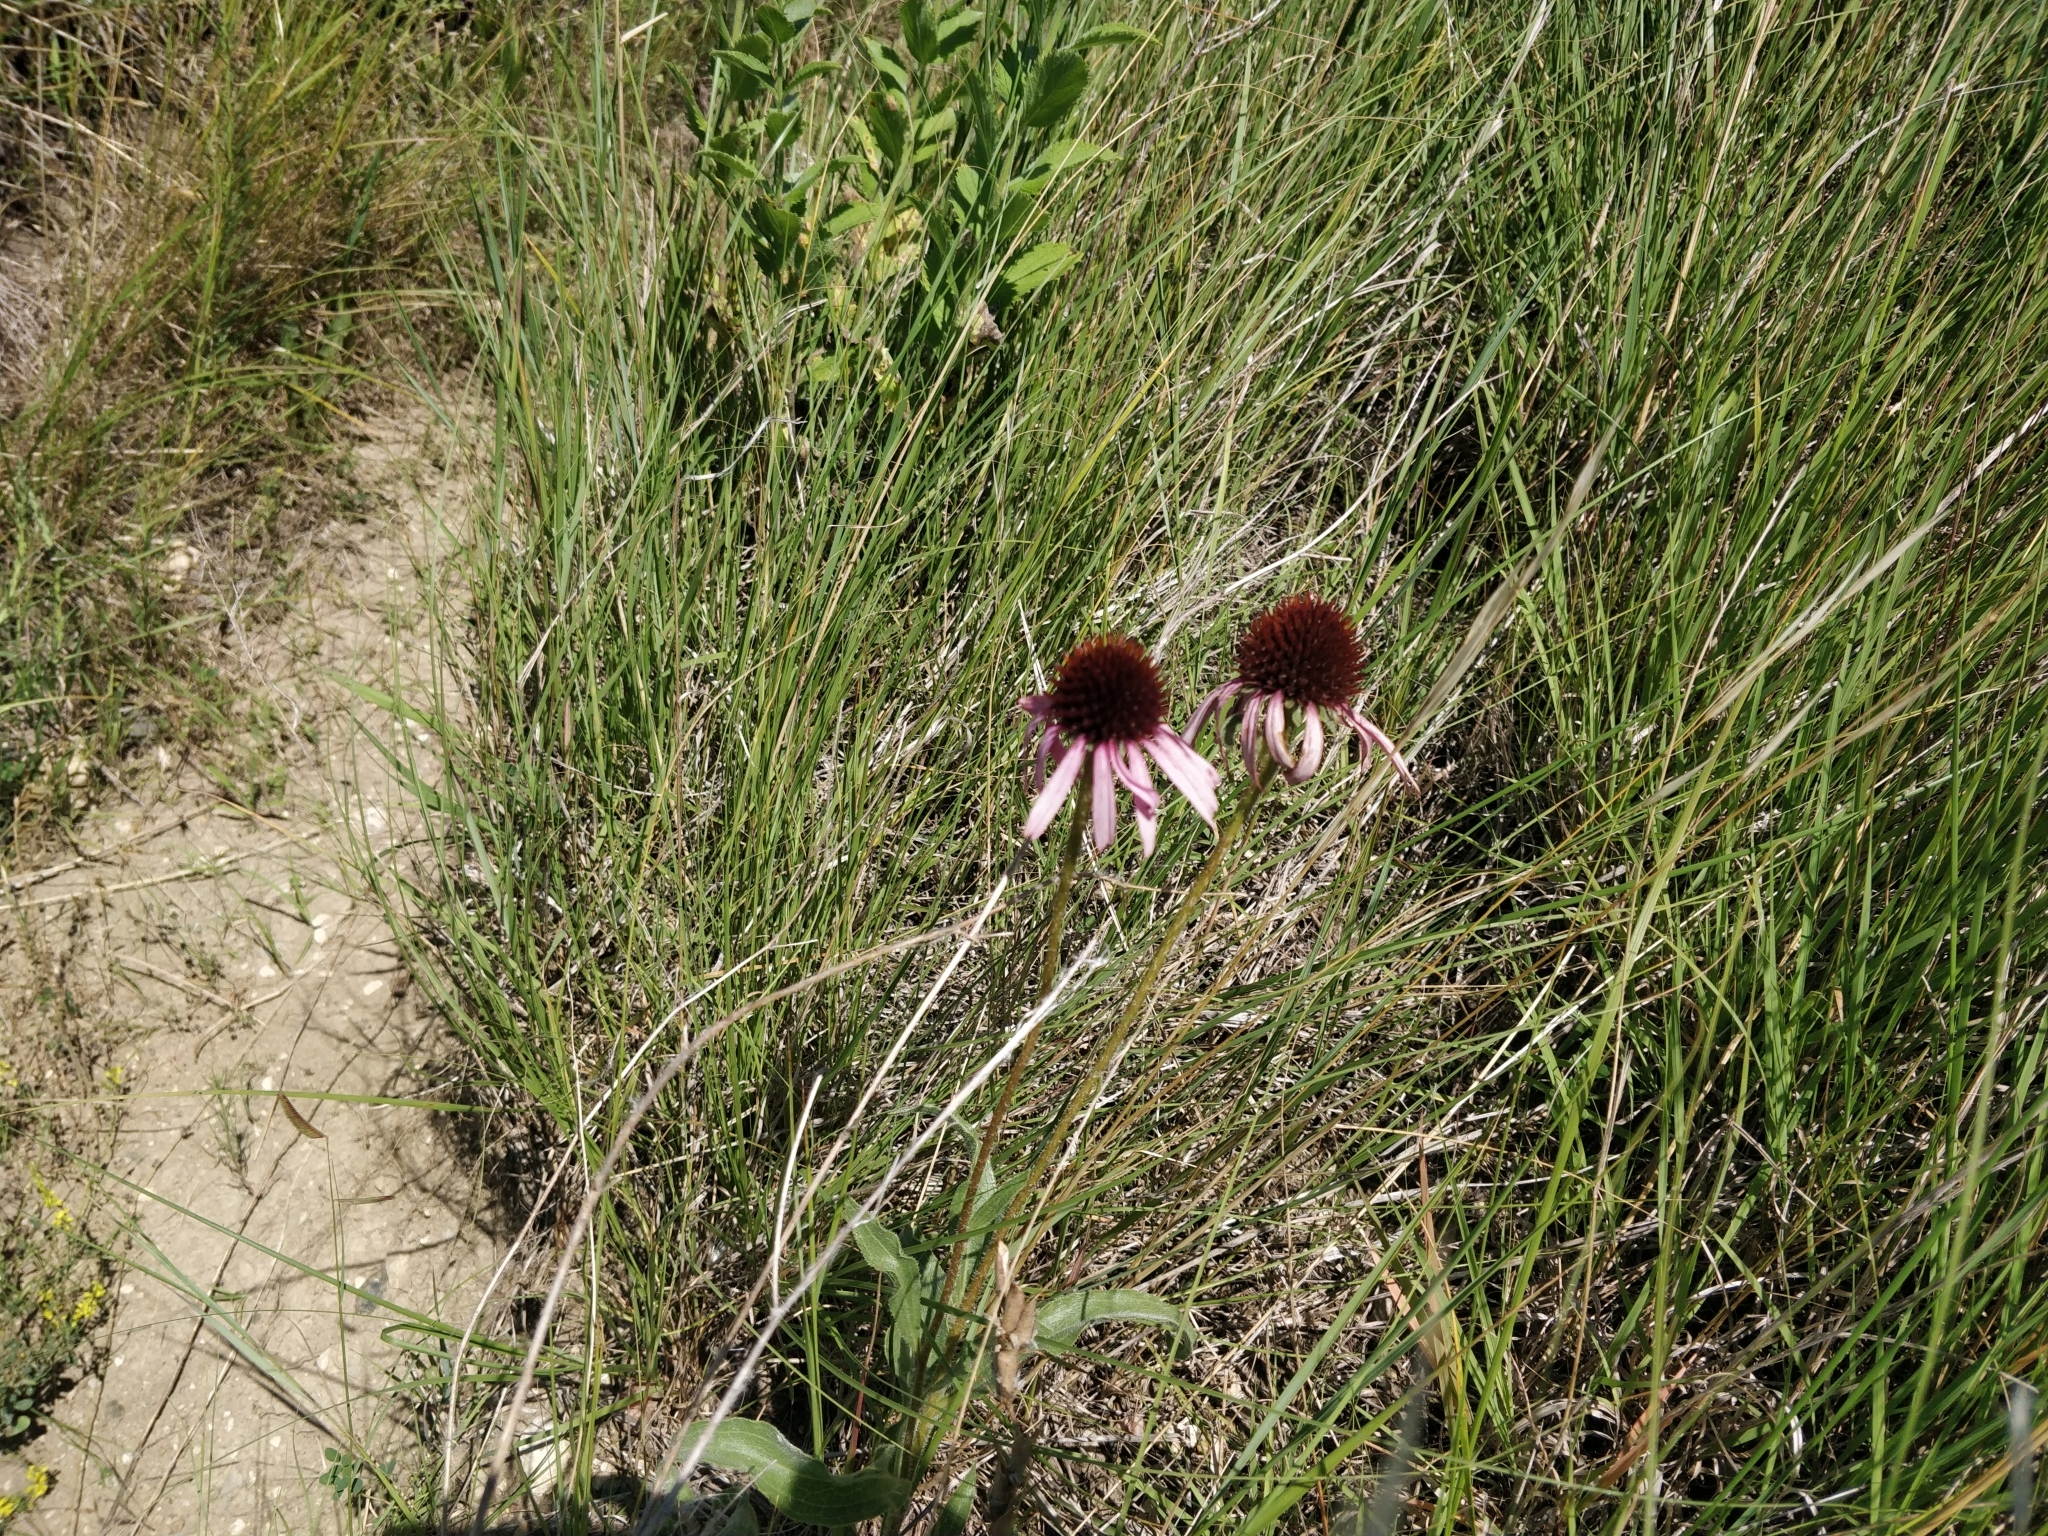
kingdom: Plantae
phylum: Tracheophyta
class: Magnoliopsida
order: Asterales
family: Asteraceae
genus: Echinacea
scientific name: Echinacea angustifolia
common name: Black-sampson echinacea
